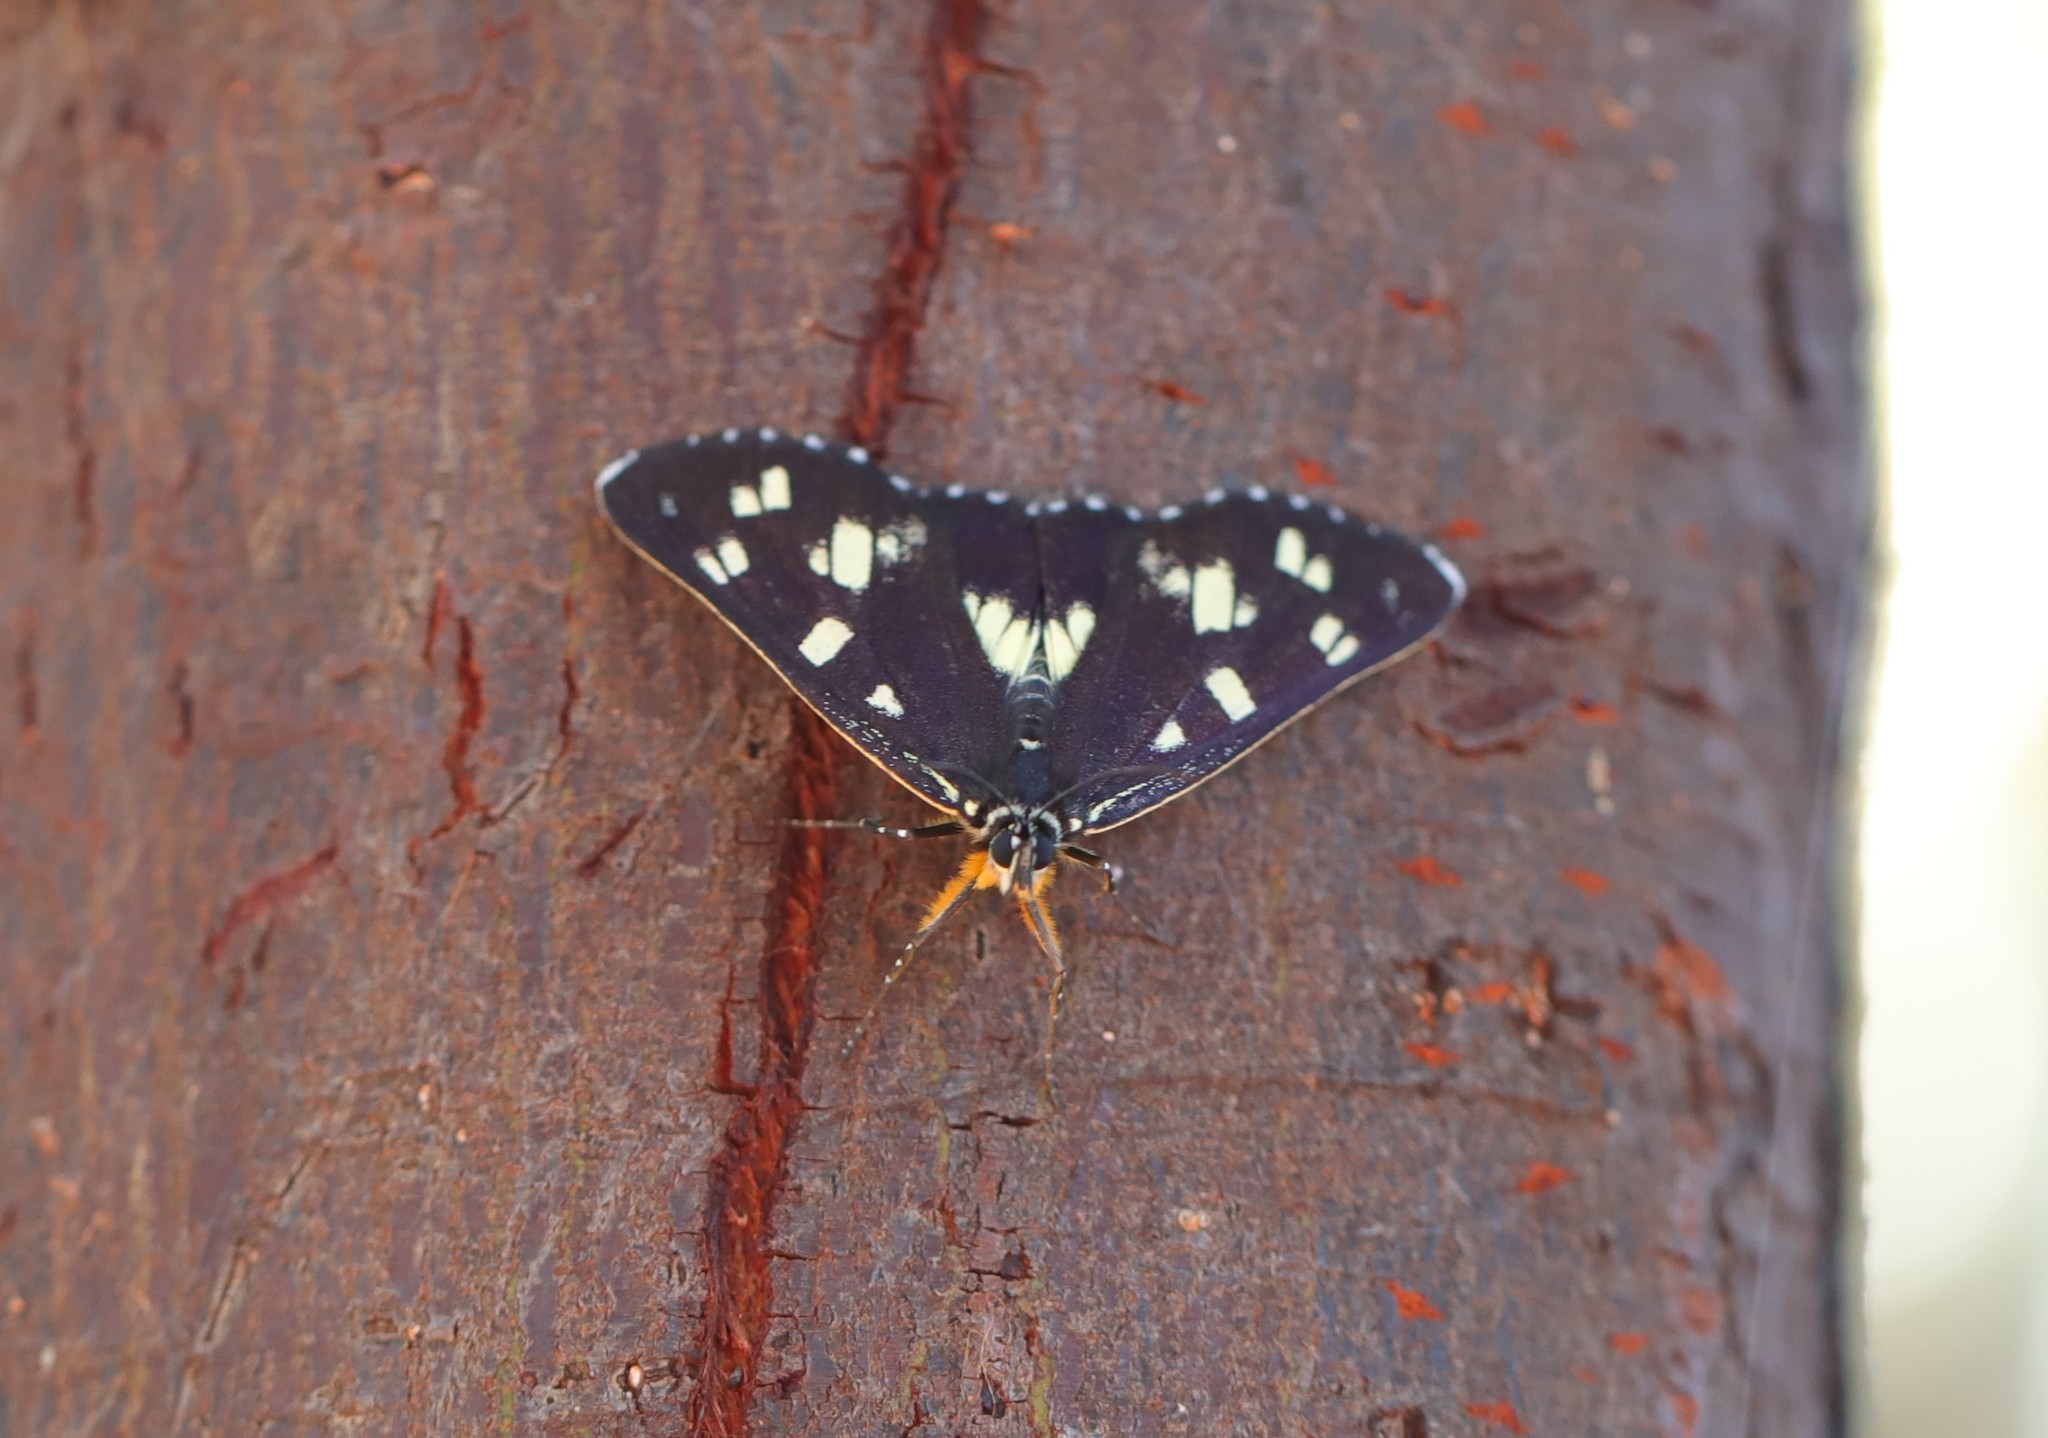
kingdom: Animalia
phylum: Arthropoda
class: Insecta
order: Lepidoptera
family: Noctuidae
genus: Cruria
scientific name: Cruria donowani
